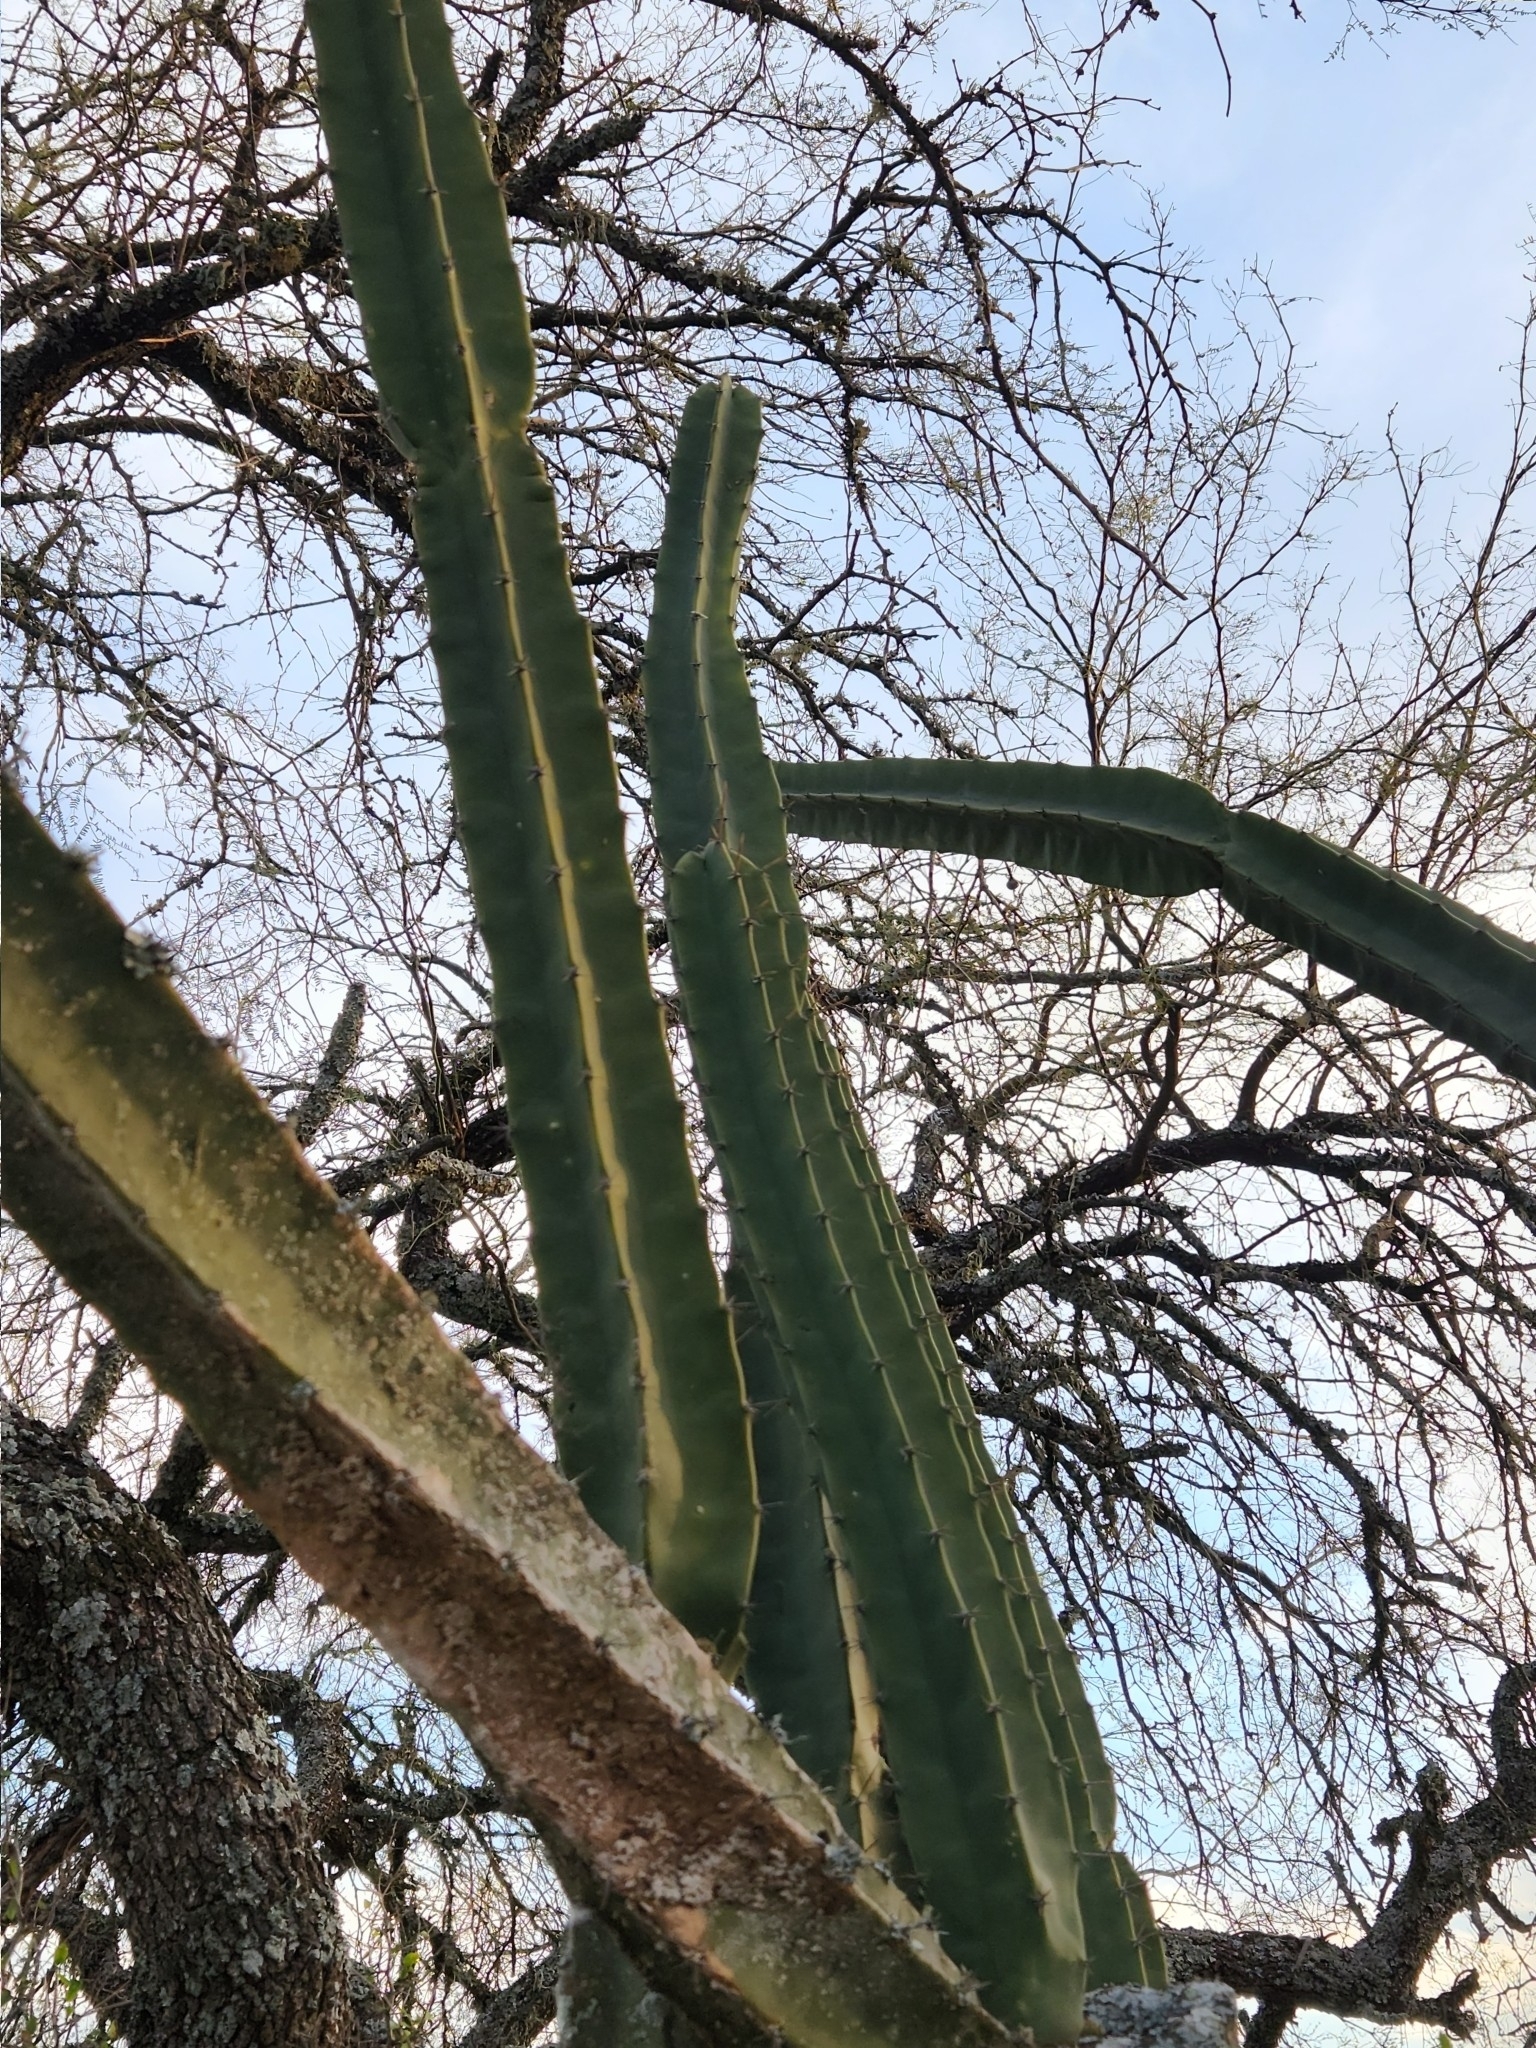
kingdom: Plantae
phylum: Tracheophyta
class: Magnoliopsida
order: Caryophyllales
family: Cactaceae
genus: Cereus
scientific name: Cereus hildmannianus
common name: Hedge cactus
